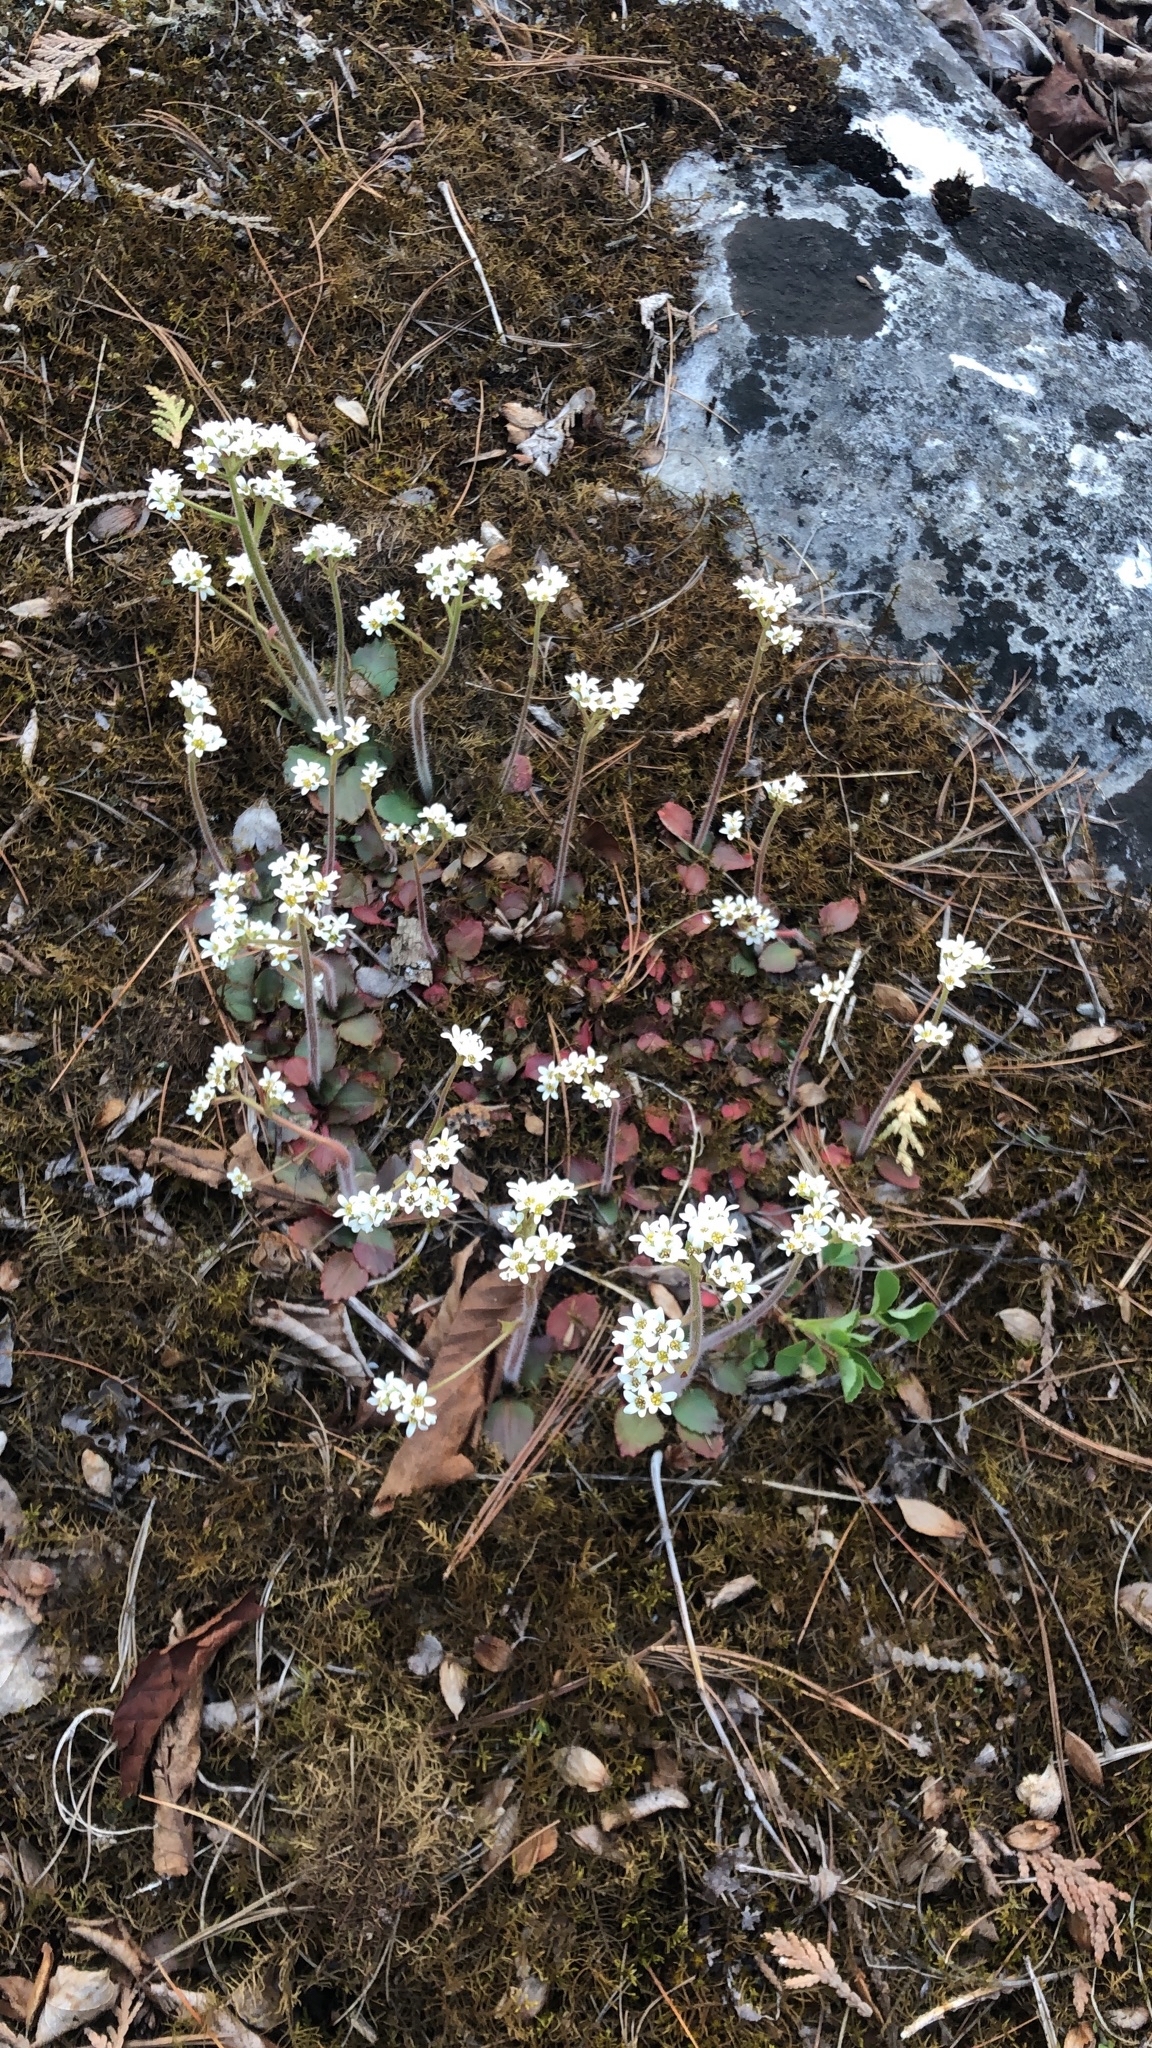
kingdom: Plantae
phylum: Tracheophyta
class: Magnoliopsida
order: Saxifragales
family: Saxifragaceae
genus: Micranthes
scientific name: Micranthes virginiensis
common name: Early saxifrage
